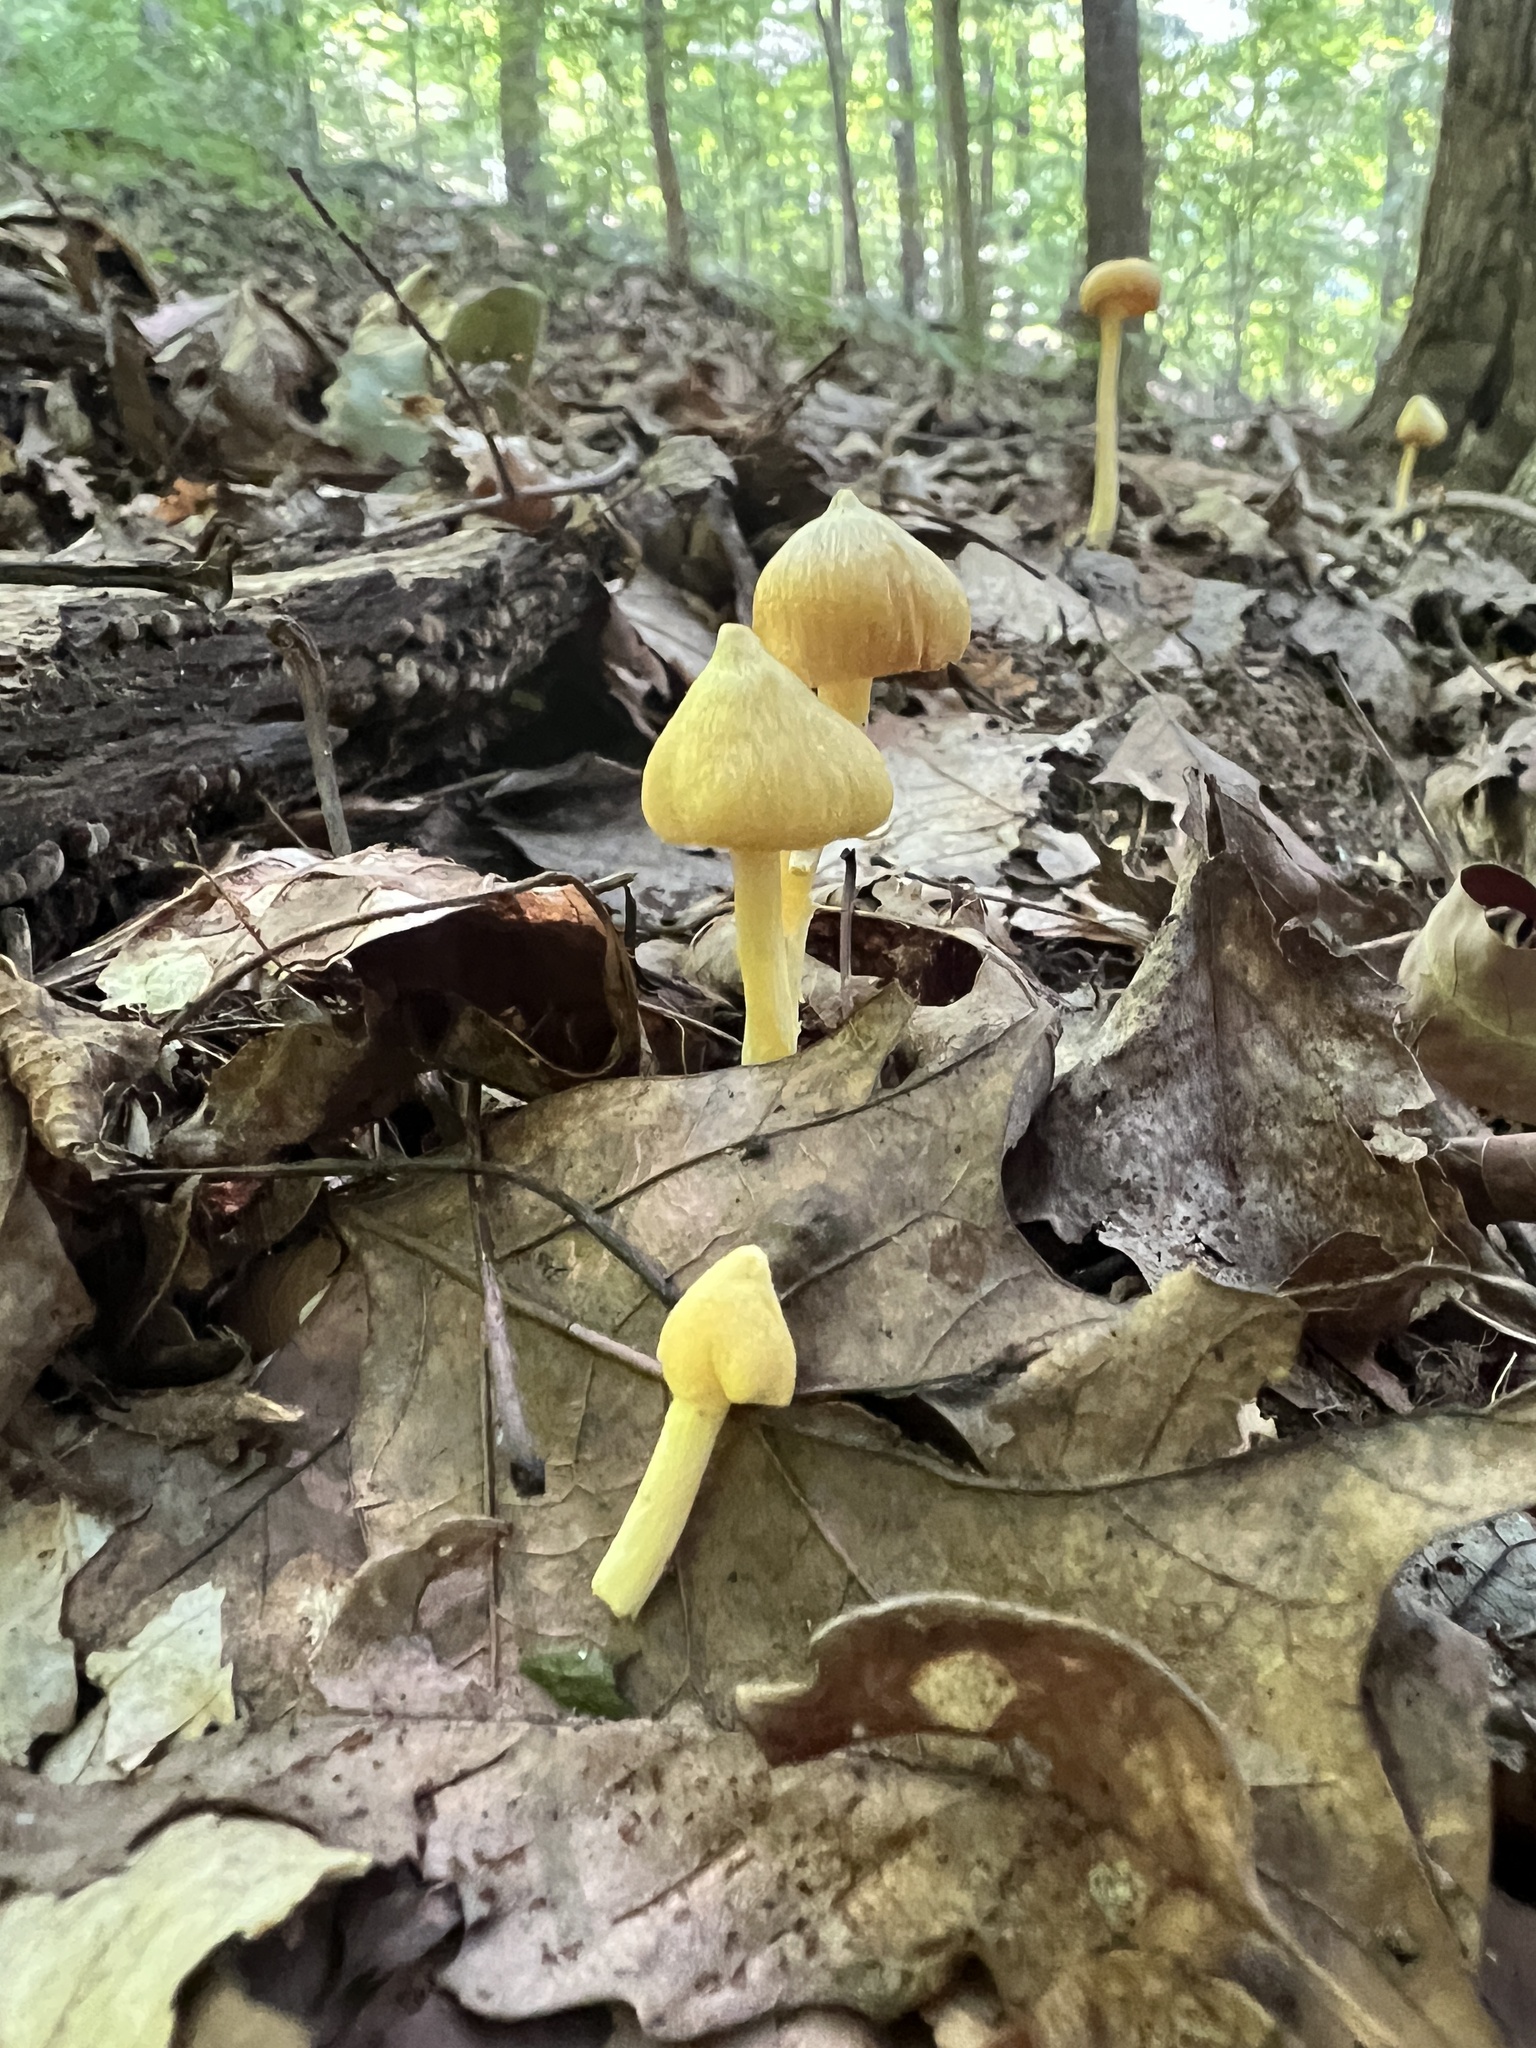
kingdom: Fungi
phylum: Basidiomycota
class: Agaricomycetes
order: Agaricales
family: Entolomataceae
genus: Entoloma
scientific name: Entoloma murrayi
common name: Yellow unicorn entoloma
